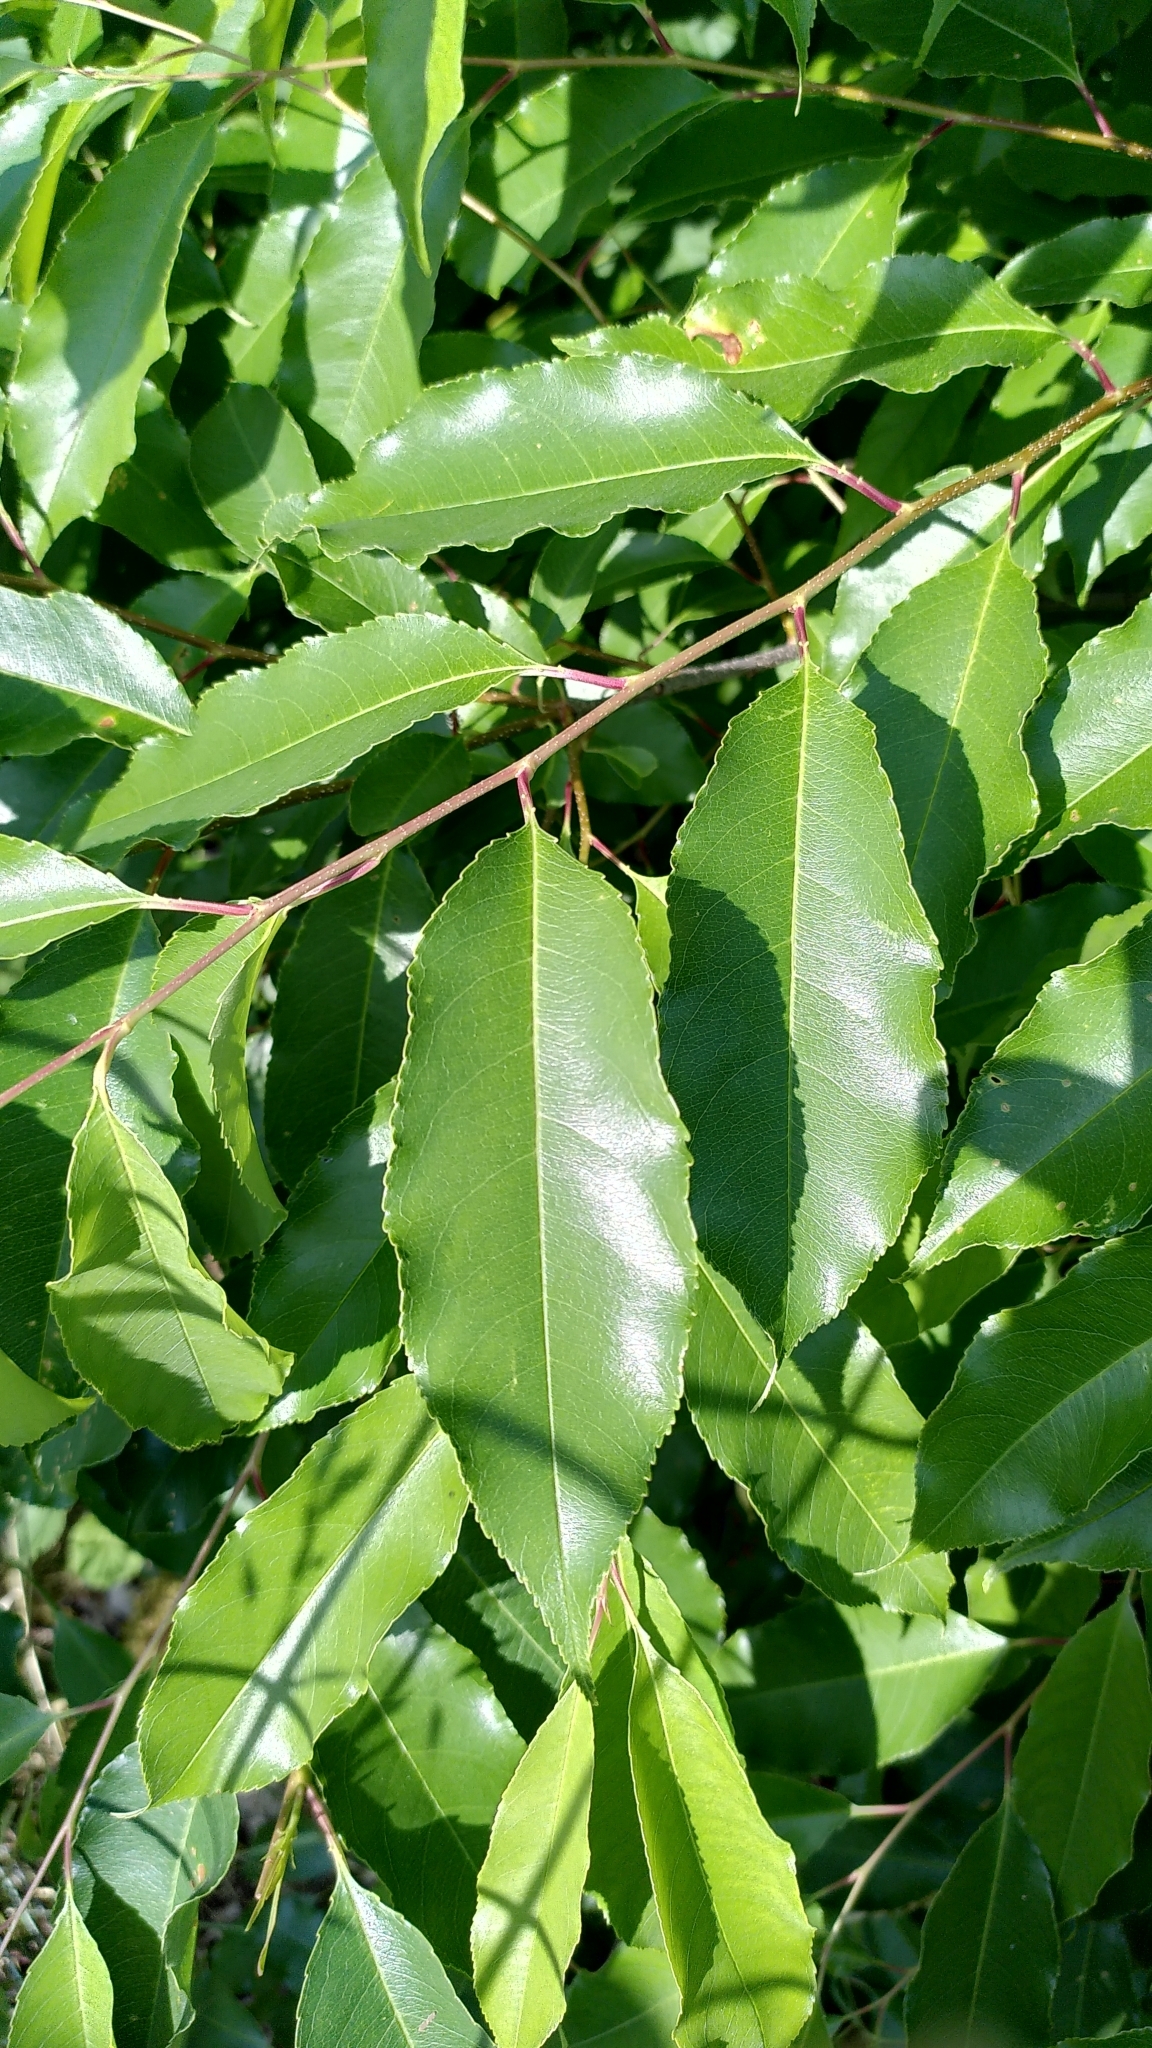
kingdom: Plantae
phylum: Tracheophyta
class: Magnoliopsida
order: Rosales
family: Rosaceae
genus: Prunus
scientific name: Prunus serotina
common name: Black cherry
